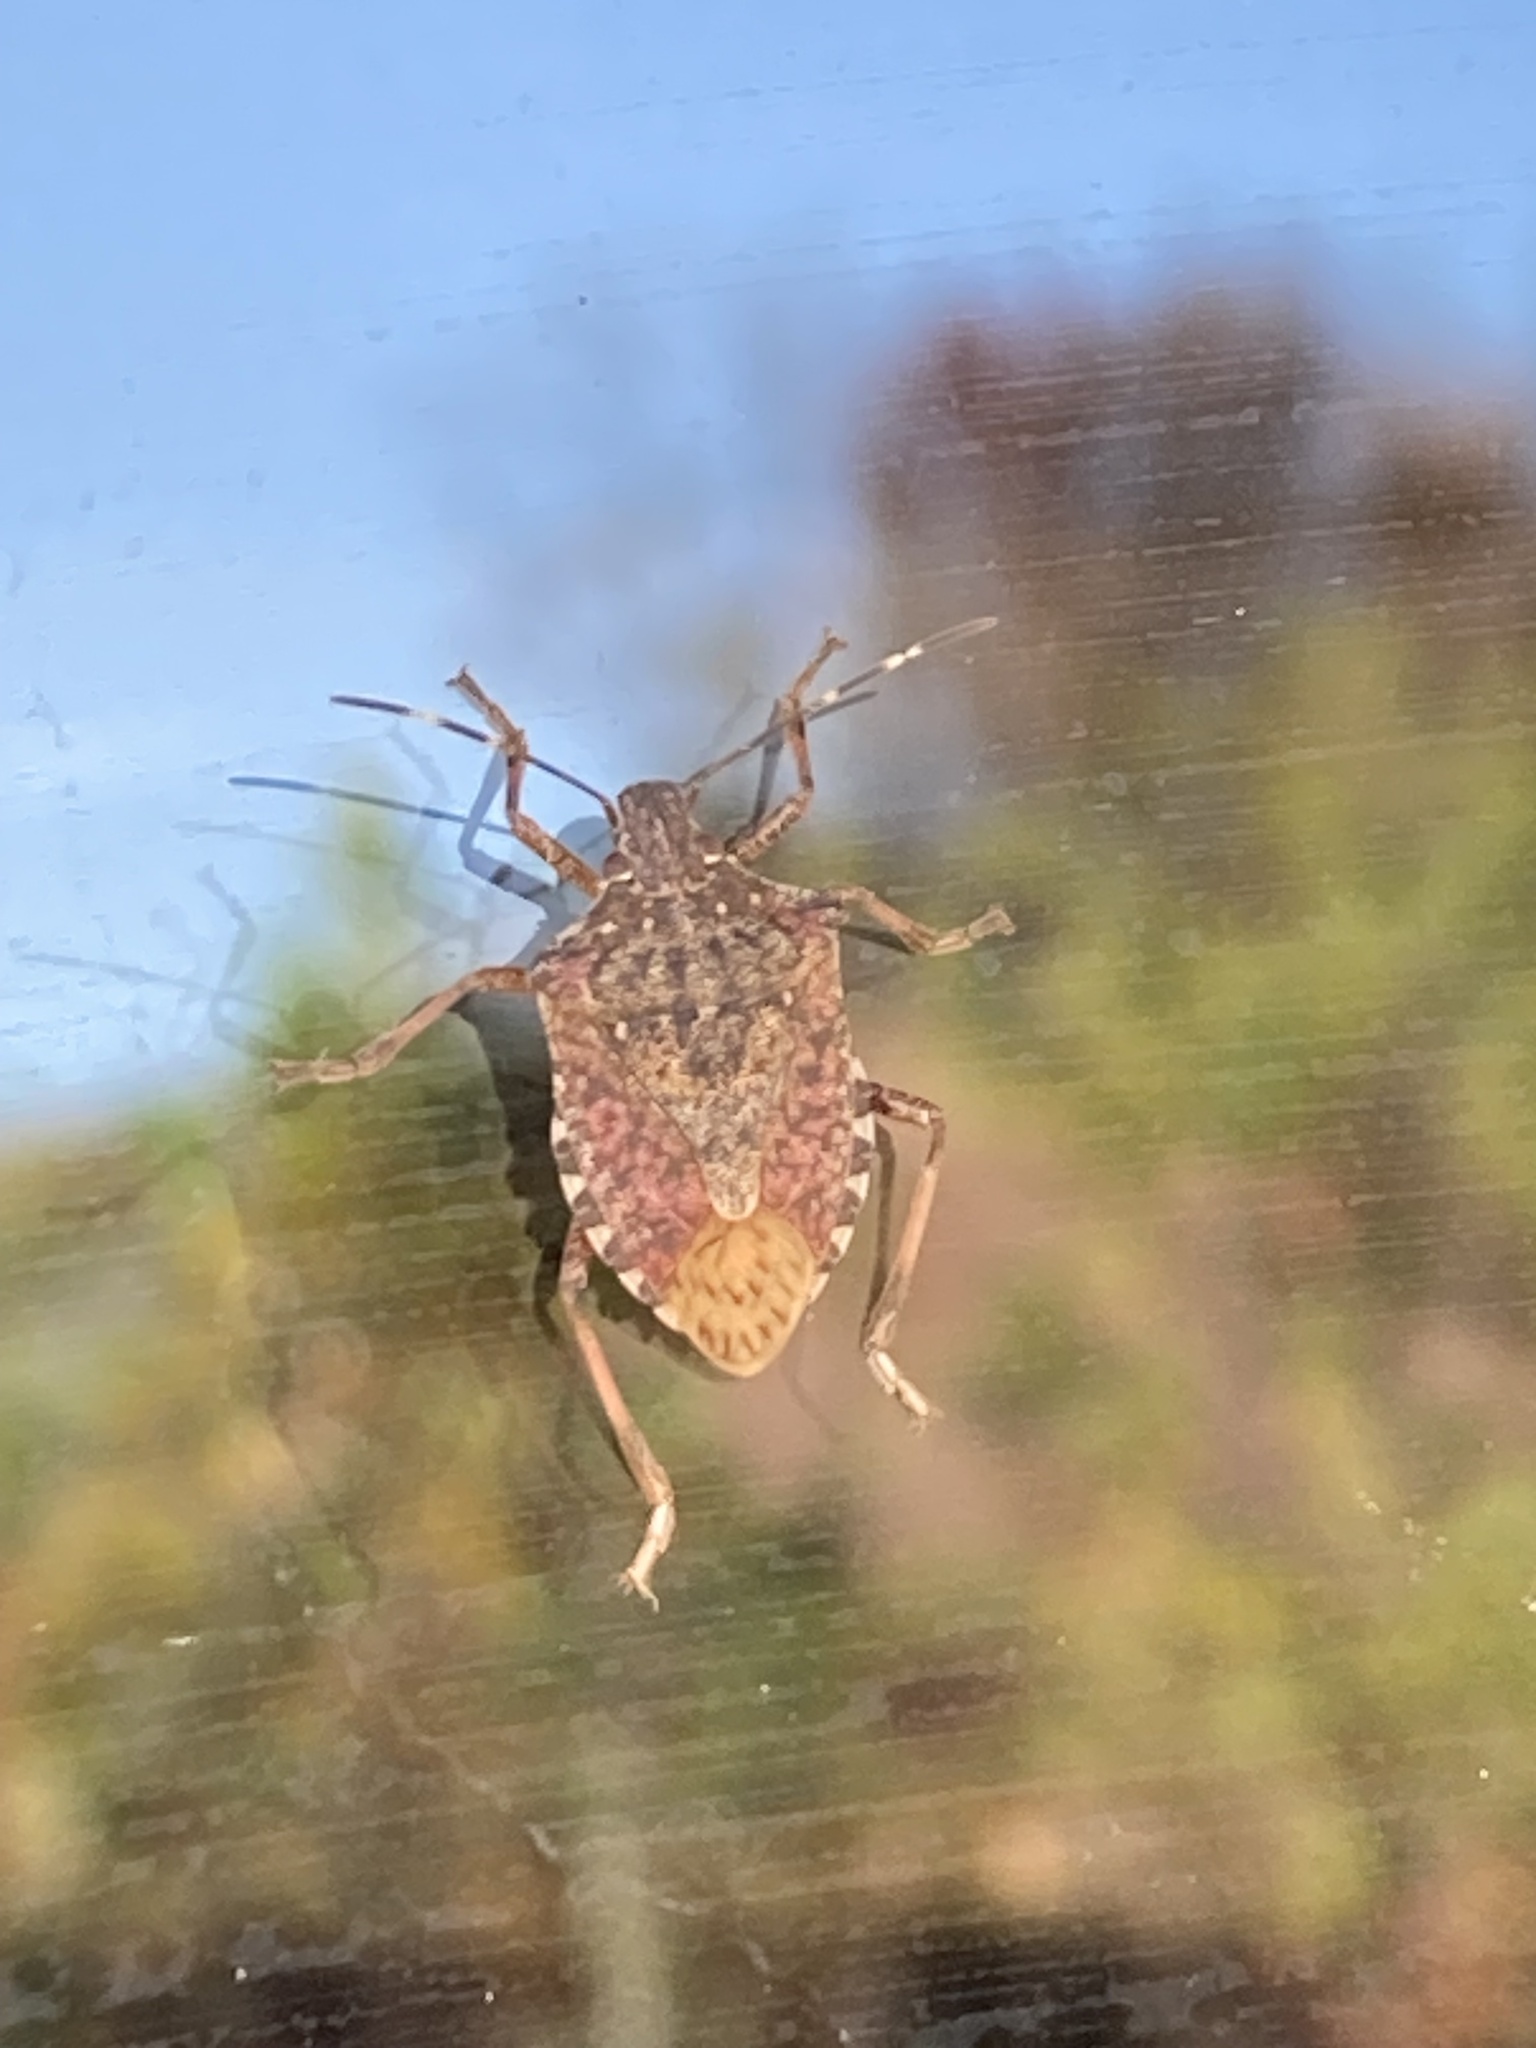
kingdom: Animalia
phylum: Arthropoda
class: Insecta
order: Hemiptera
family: Pentatomidae
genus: Halyomorpha
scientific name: Halyomorpha halys
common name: Brown marmorated stink bug
